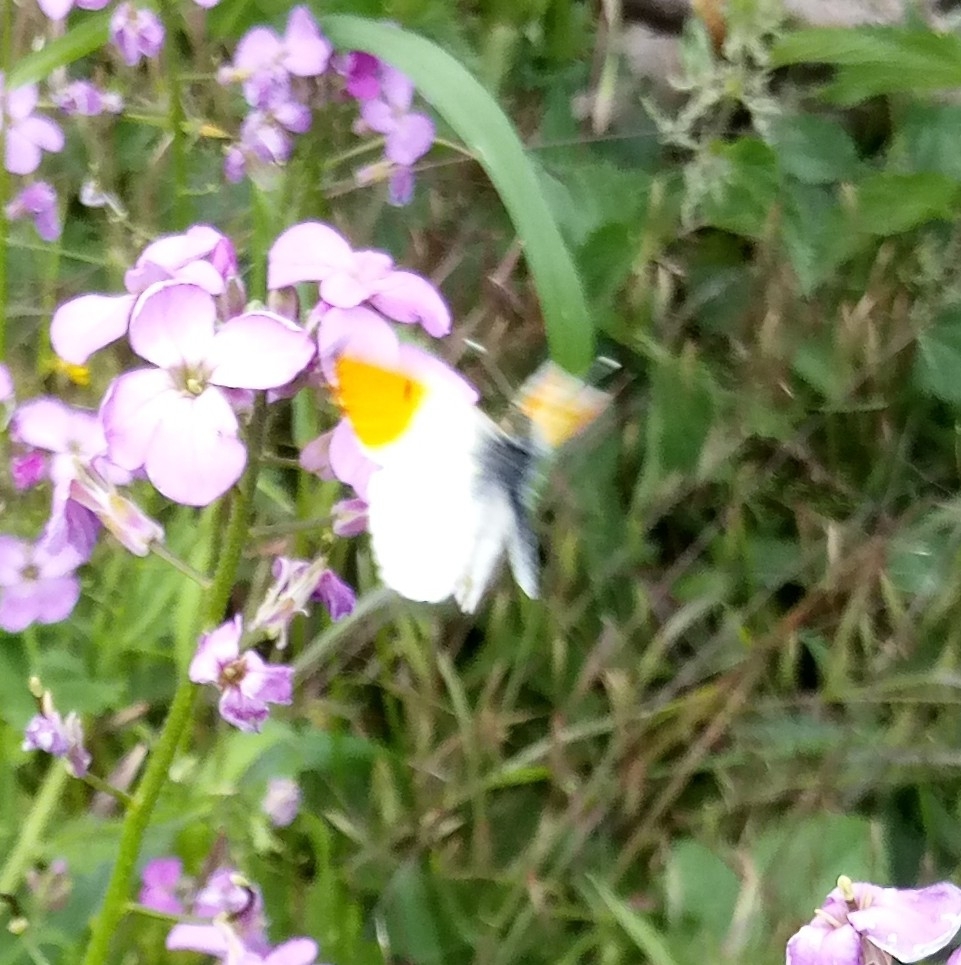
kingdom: Animalia
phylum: Arthropoda
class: Insecta
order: Lepidoptera
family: Pieridae
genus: Anthocharis
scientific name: Anthocharis cardamines
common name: Orange-tip
